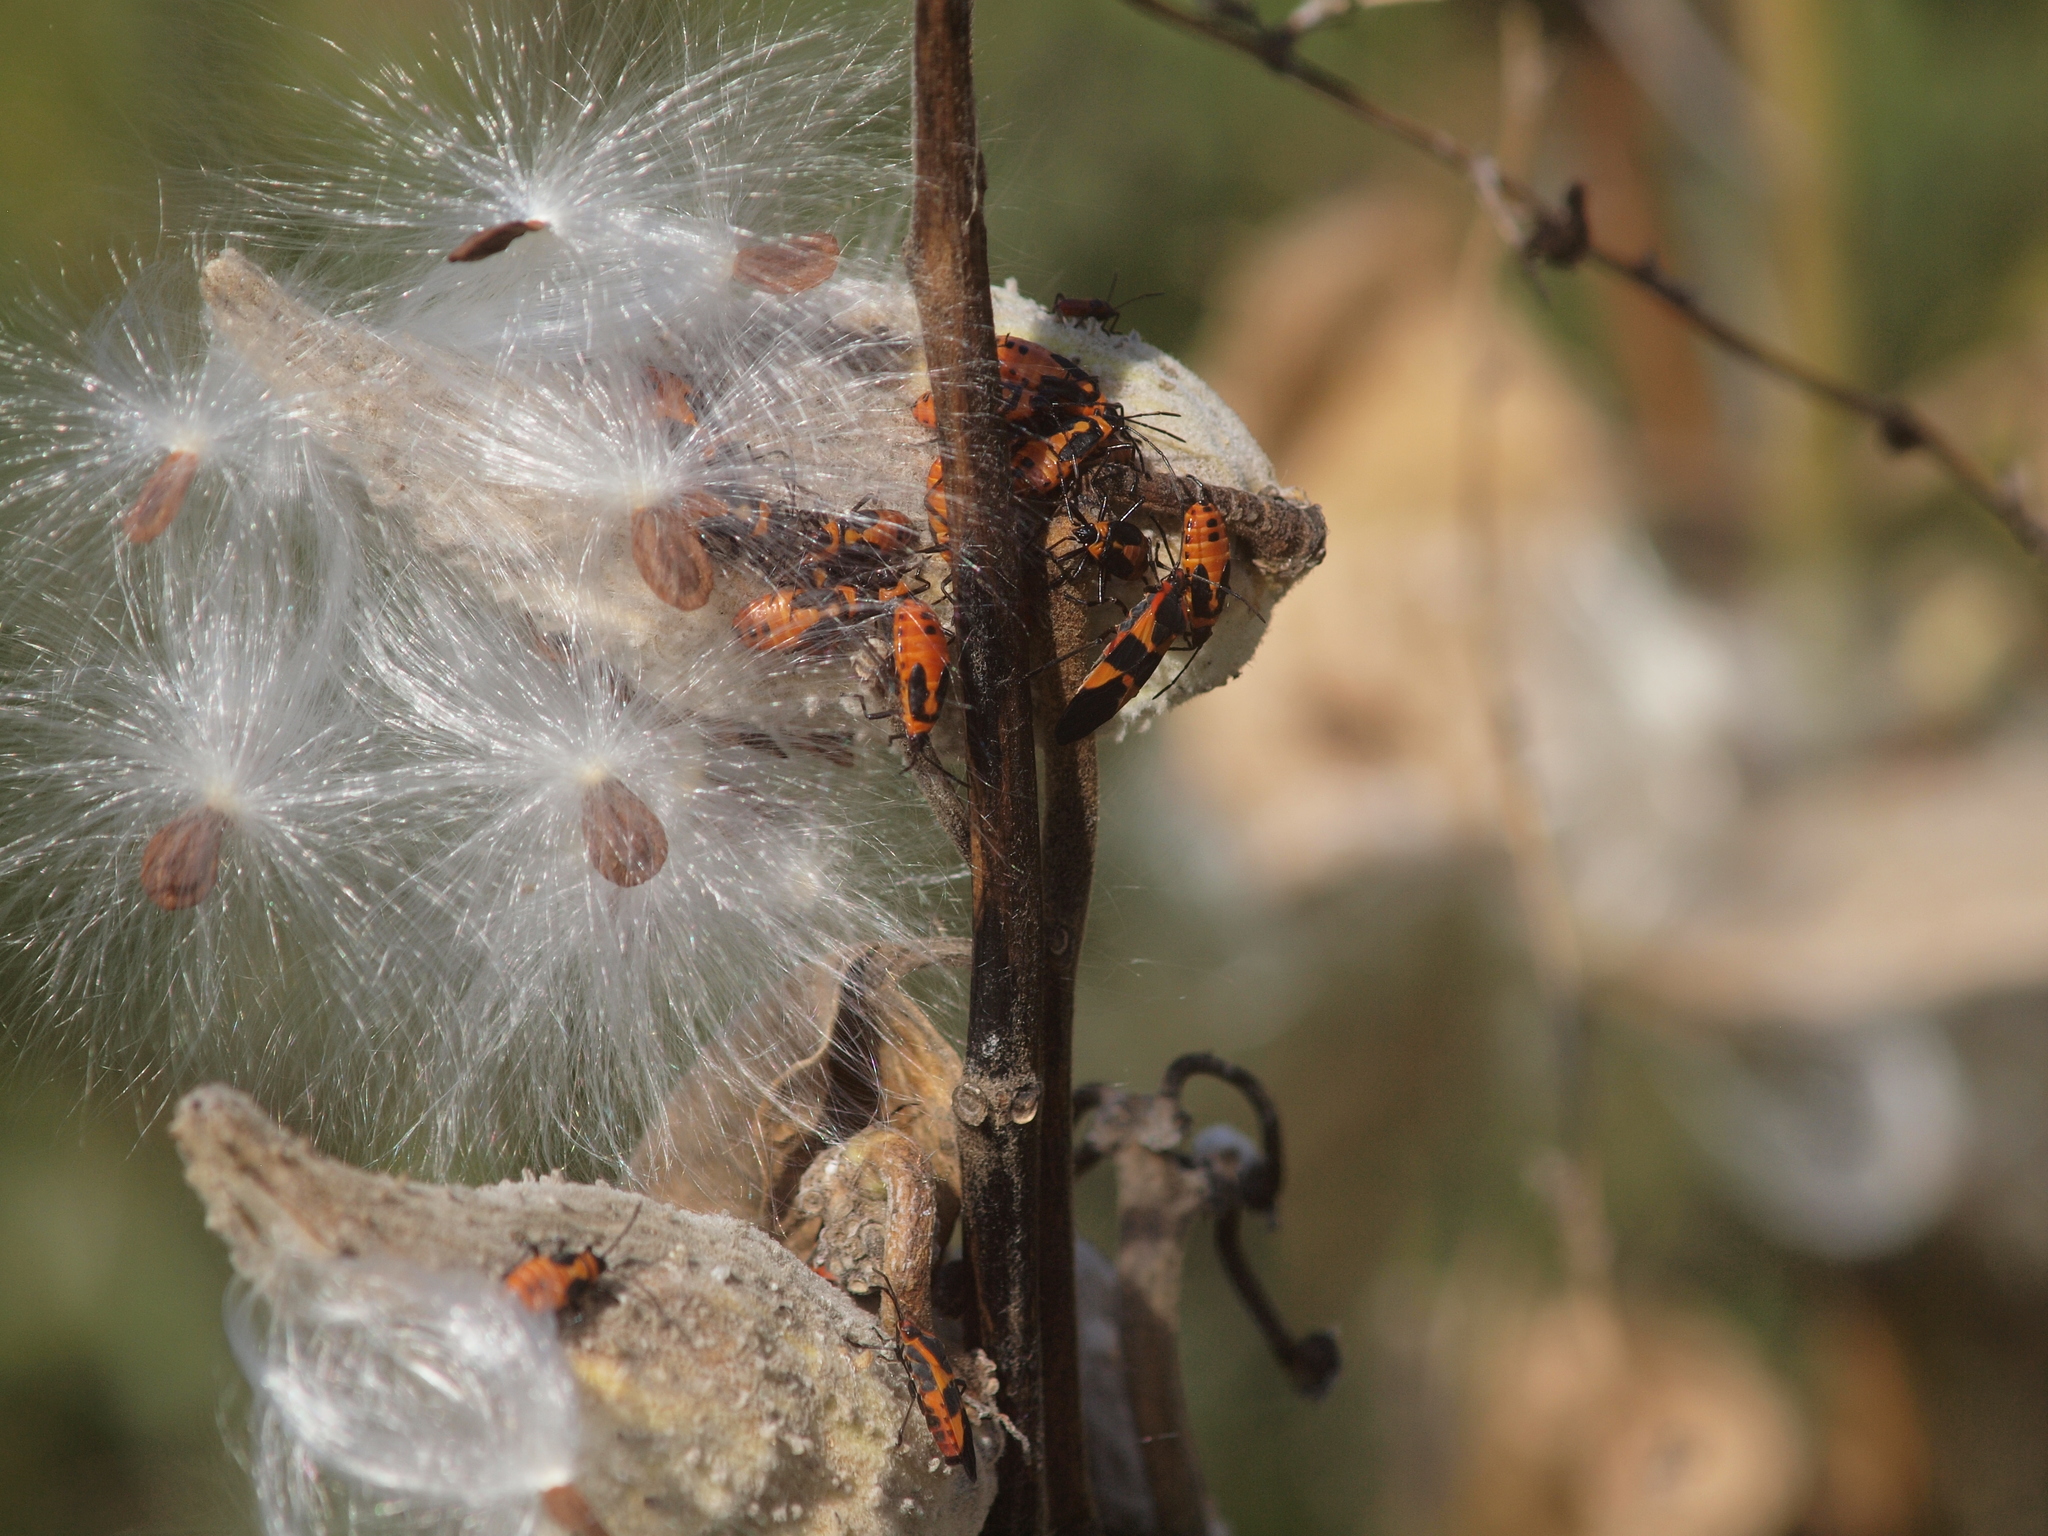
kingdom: Animalia
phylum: Arthropoda
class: Insecta
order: Hemiptera
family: Lygaeidae
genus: Oncopeltus
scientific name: Oncopeltus fasciatus
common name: Large milkweed bug
